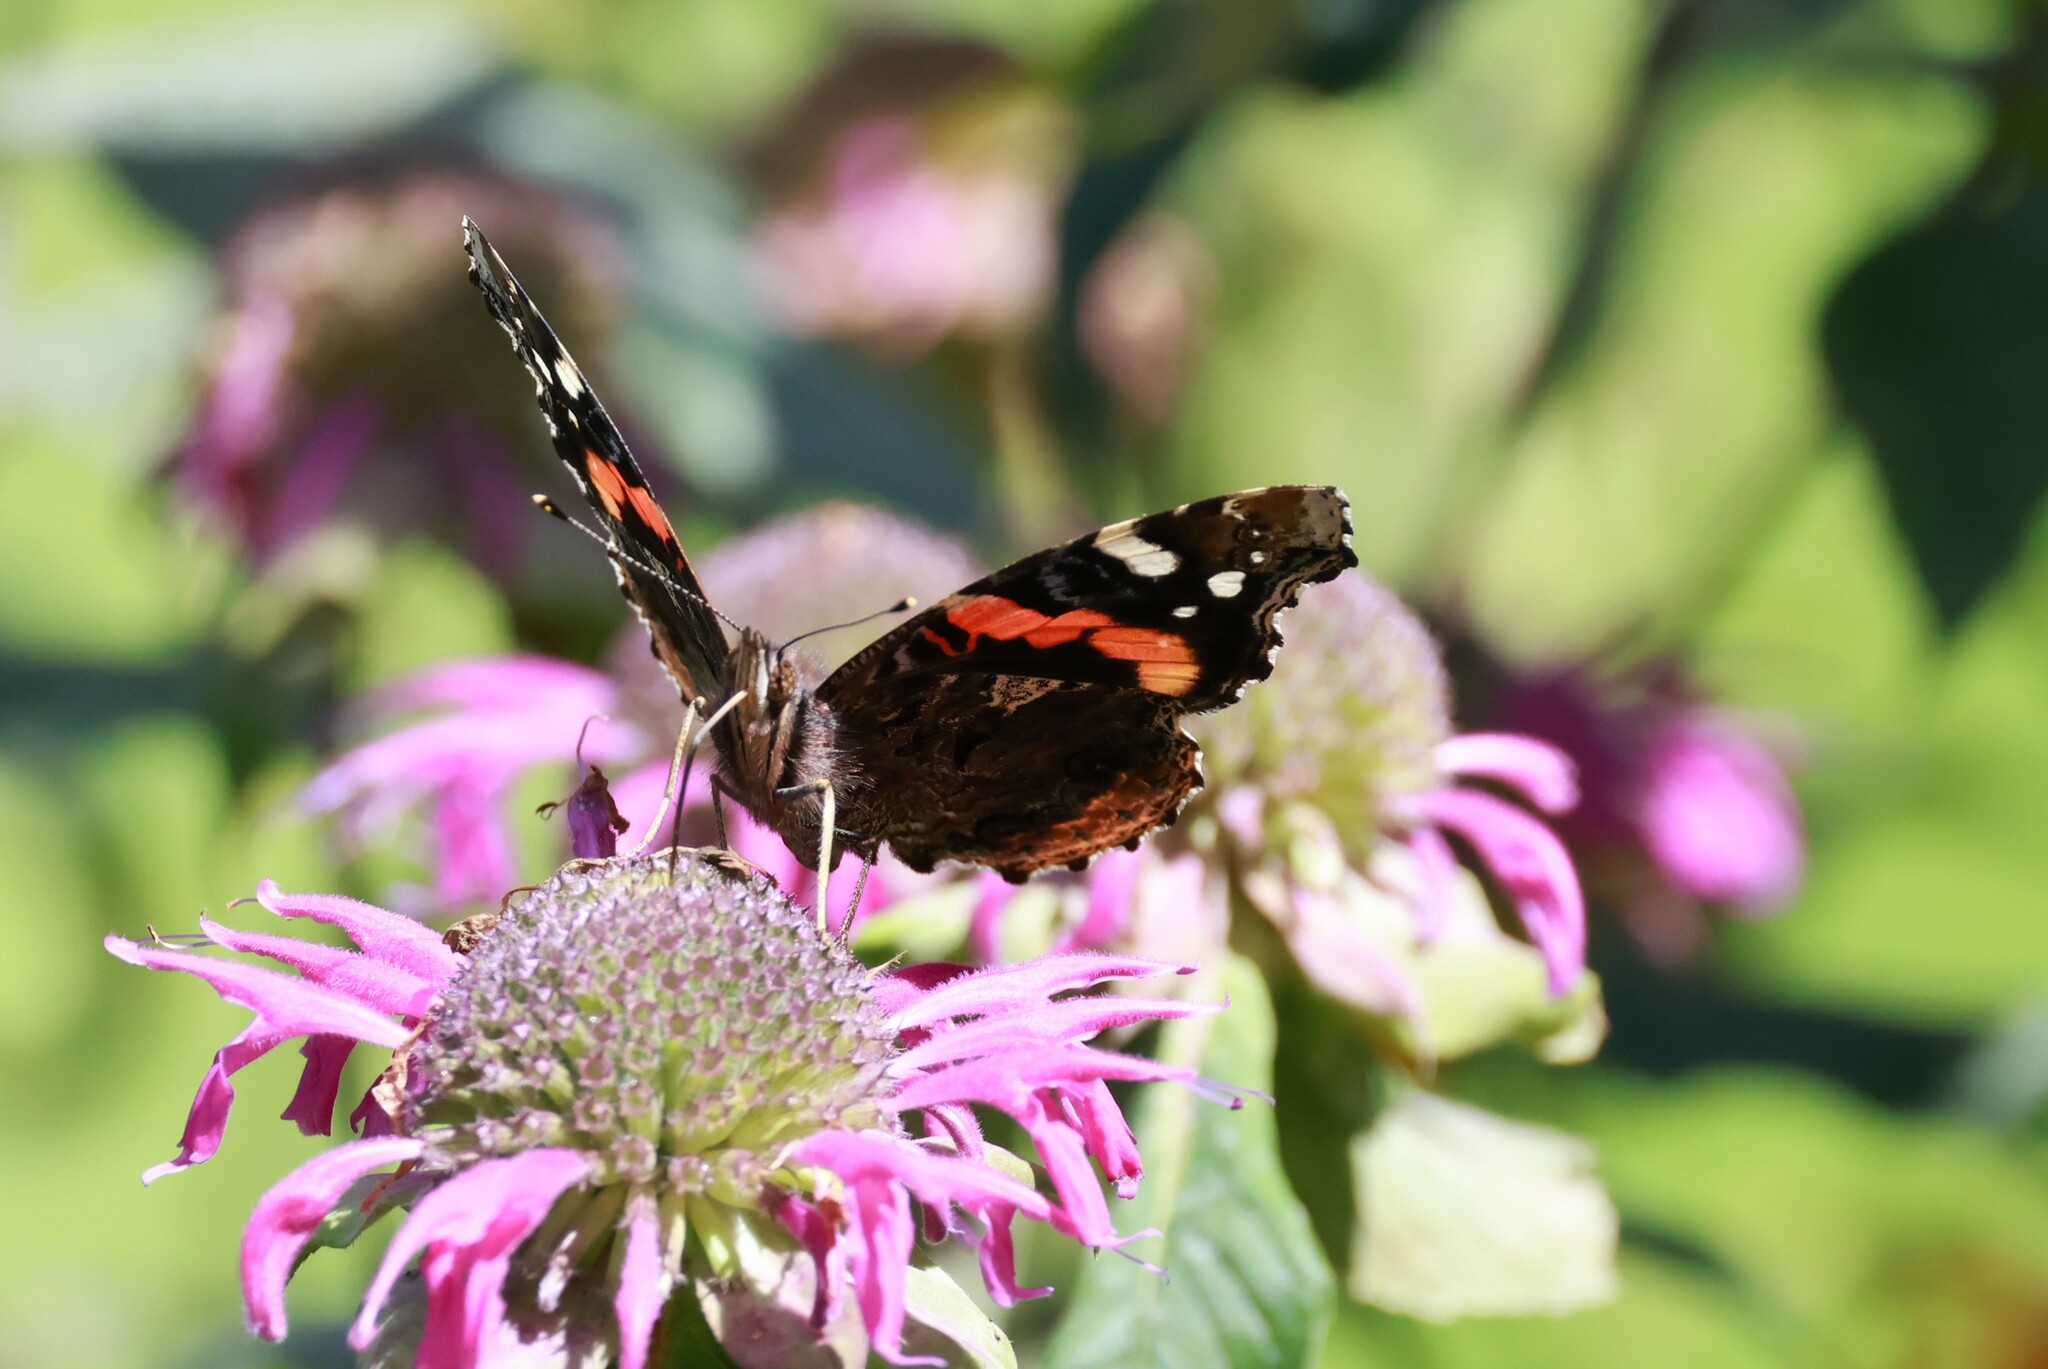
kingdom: Animalia
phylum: Arthropoda
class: Insecta
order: Lepidoptera
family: Nymphalidae
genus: Vanessa
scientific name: Vanessa atalanta
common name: Red admiral
